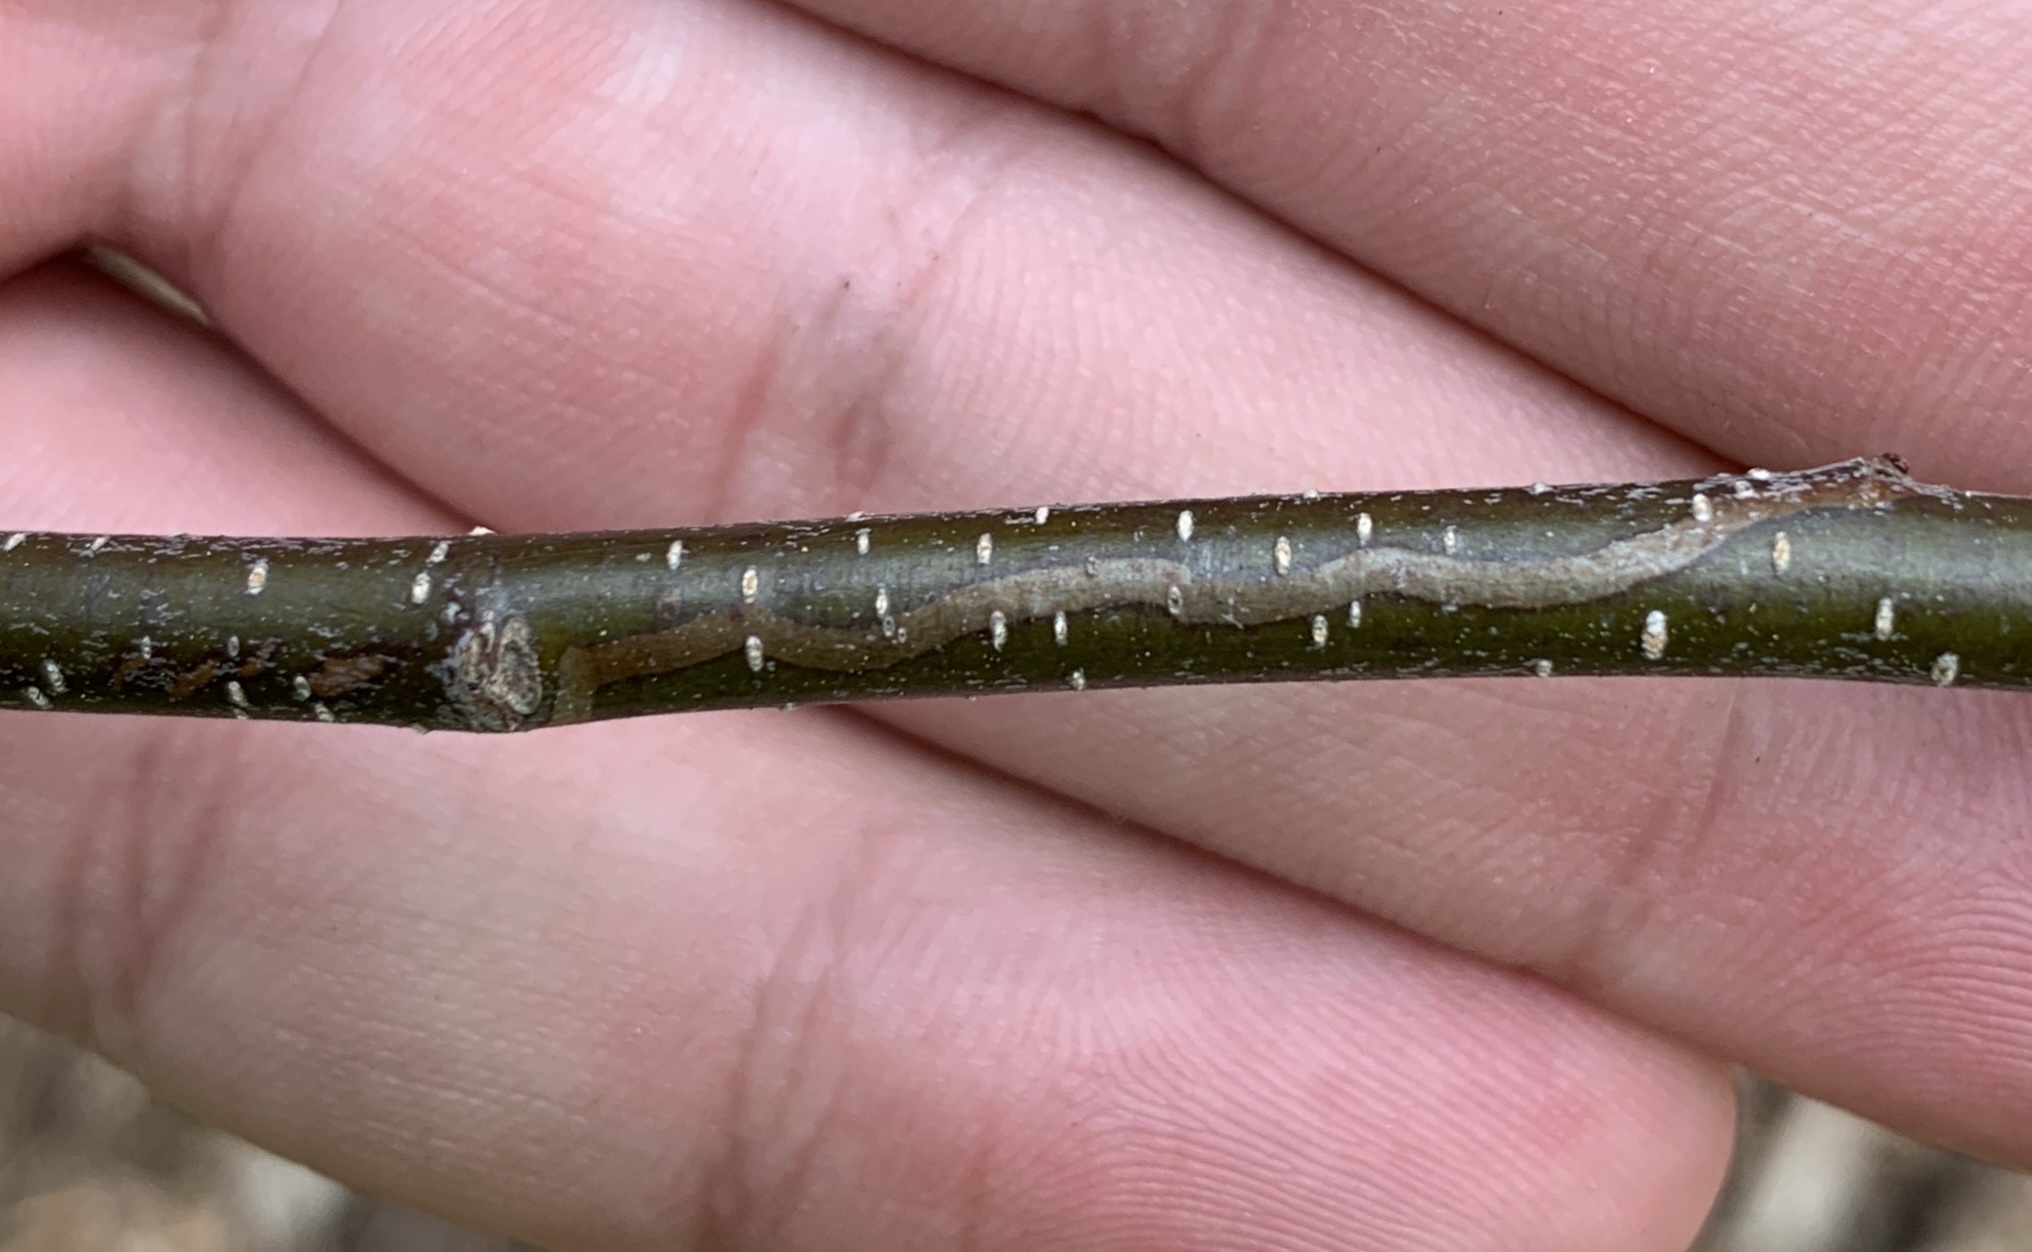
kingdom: Animalia
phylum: Arthropoda
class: Insecta
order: Lepidoptera
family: Gracillariidae
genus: Marmara
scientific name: Marmara serotinella
